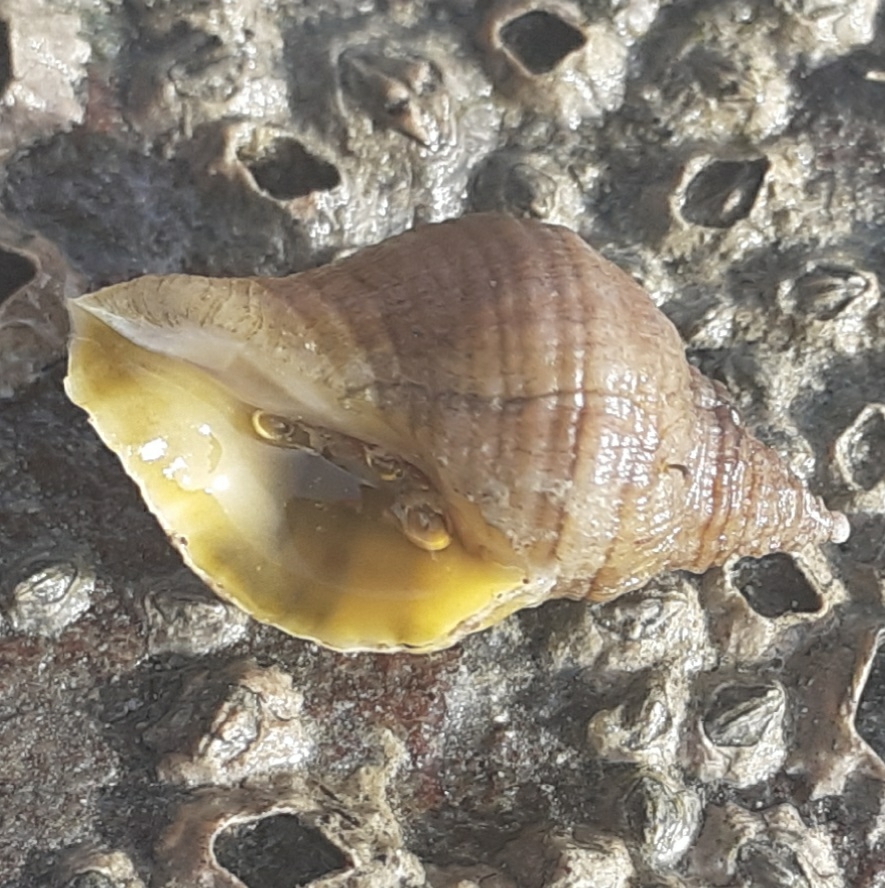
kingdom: Animalia
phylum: Mollusca
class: Gastropoda
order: Neogastropoda
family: Muricidae
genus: Nucella
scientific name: Nucella lapillus
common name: Dog whelk
